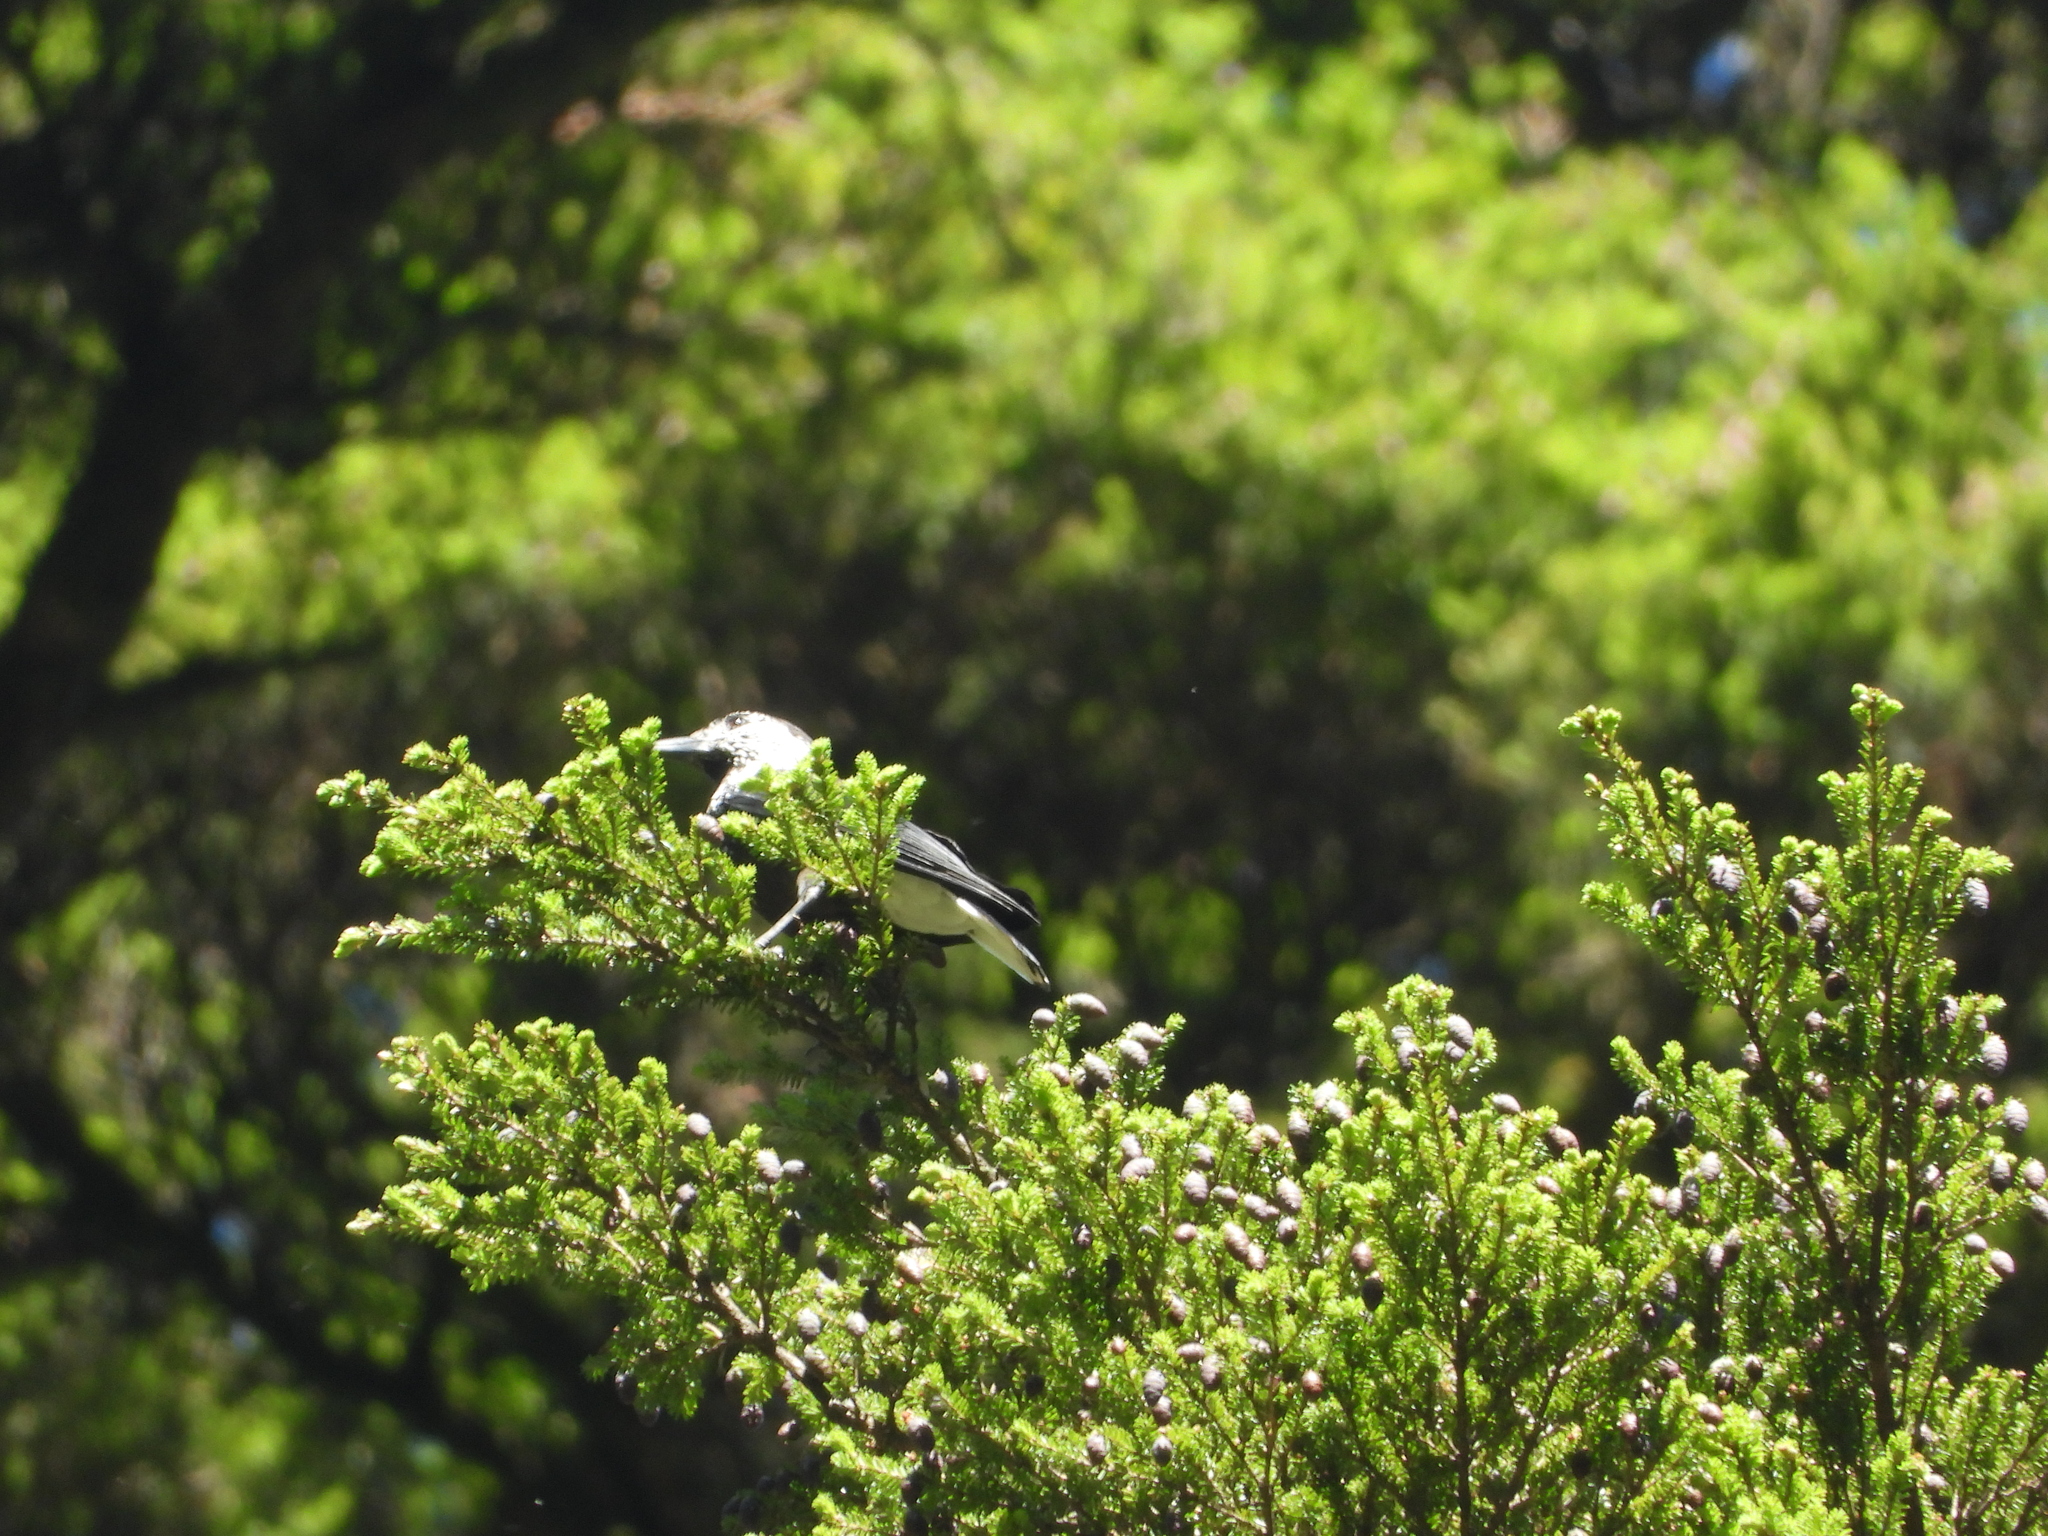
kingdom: Animalia
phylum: Chordata
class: Aves
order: Passeriformes
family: Corvidae
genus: Nucifraga
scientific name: Nucifraga caryocatactes
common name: Spotted nutcracker
